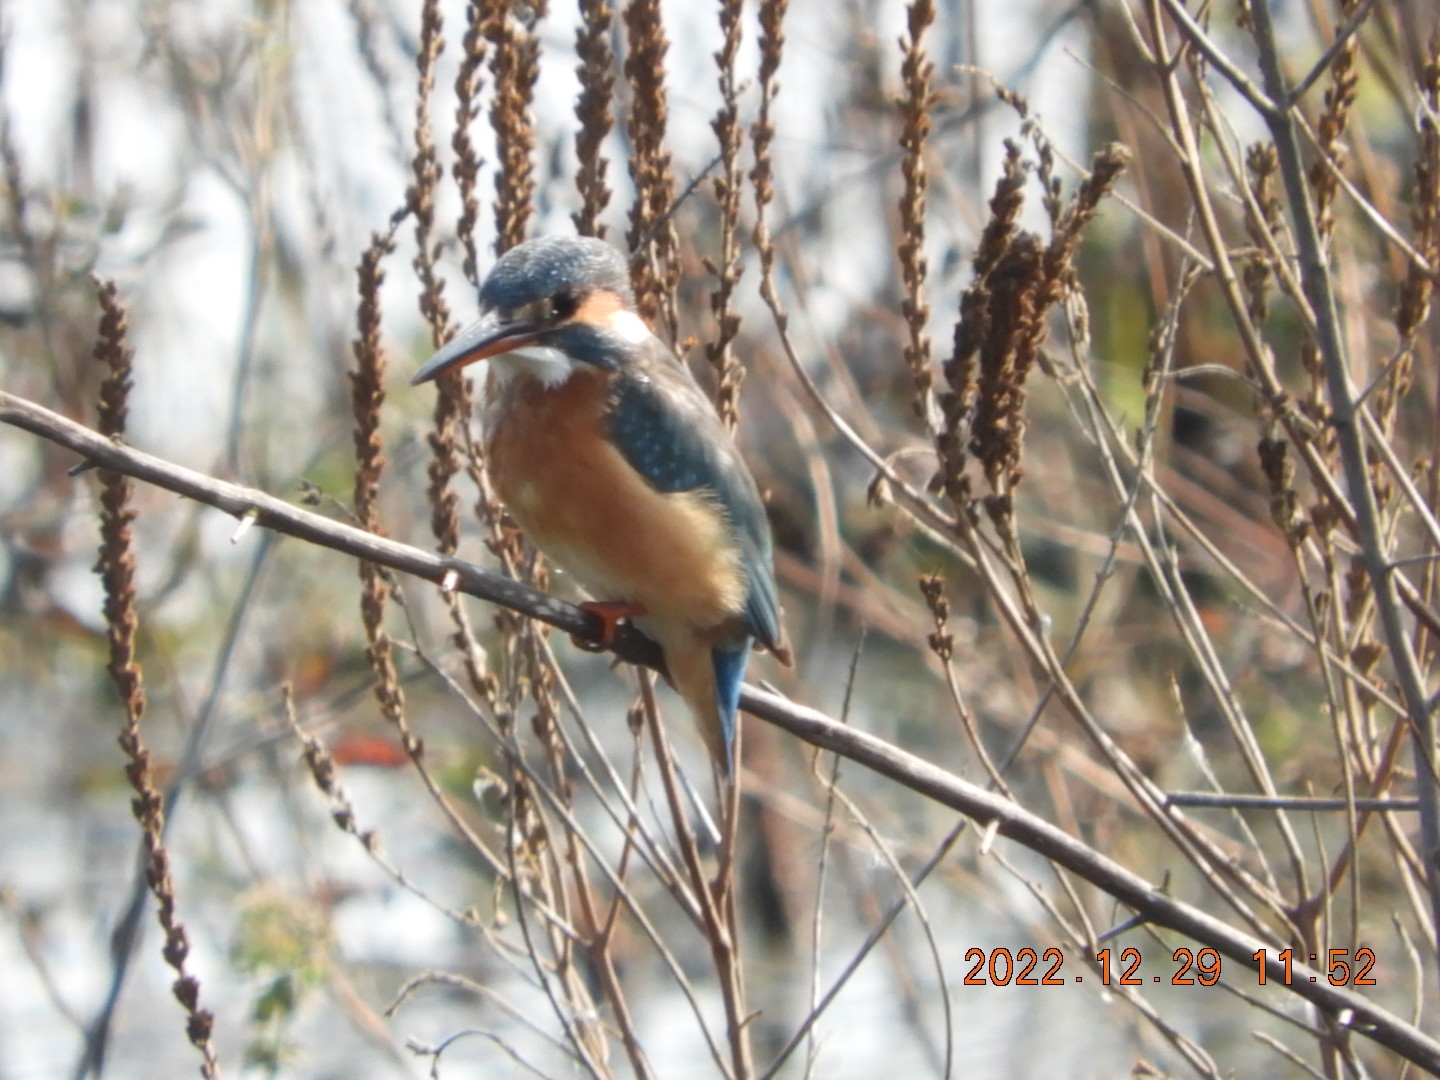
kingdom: Animalia
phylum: Chordata
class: Aves
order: Coraciiformes
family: Alcedinidae
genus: Alcedo
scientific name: Alcedo atthis
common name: Common kingfisher
